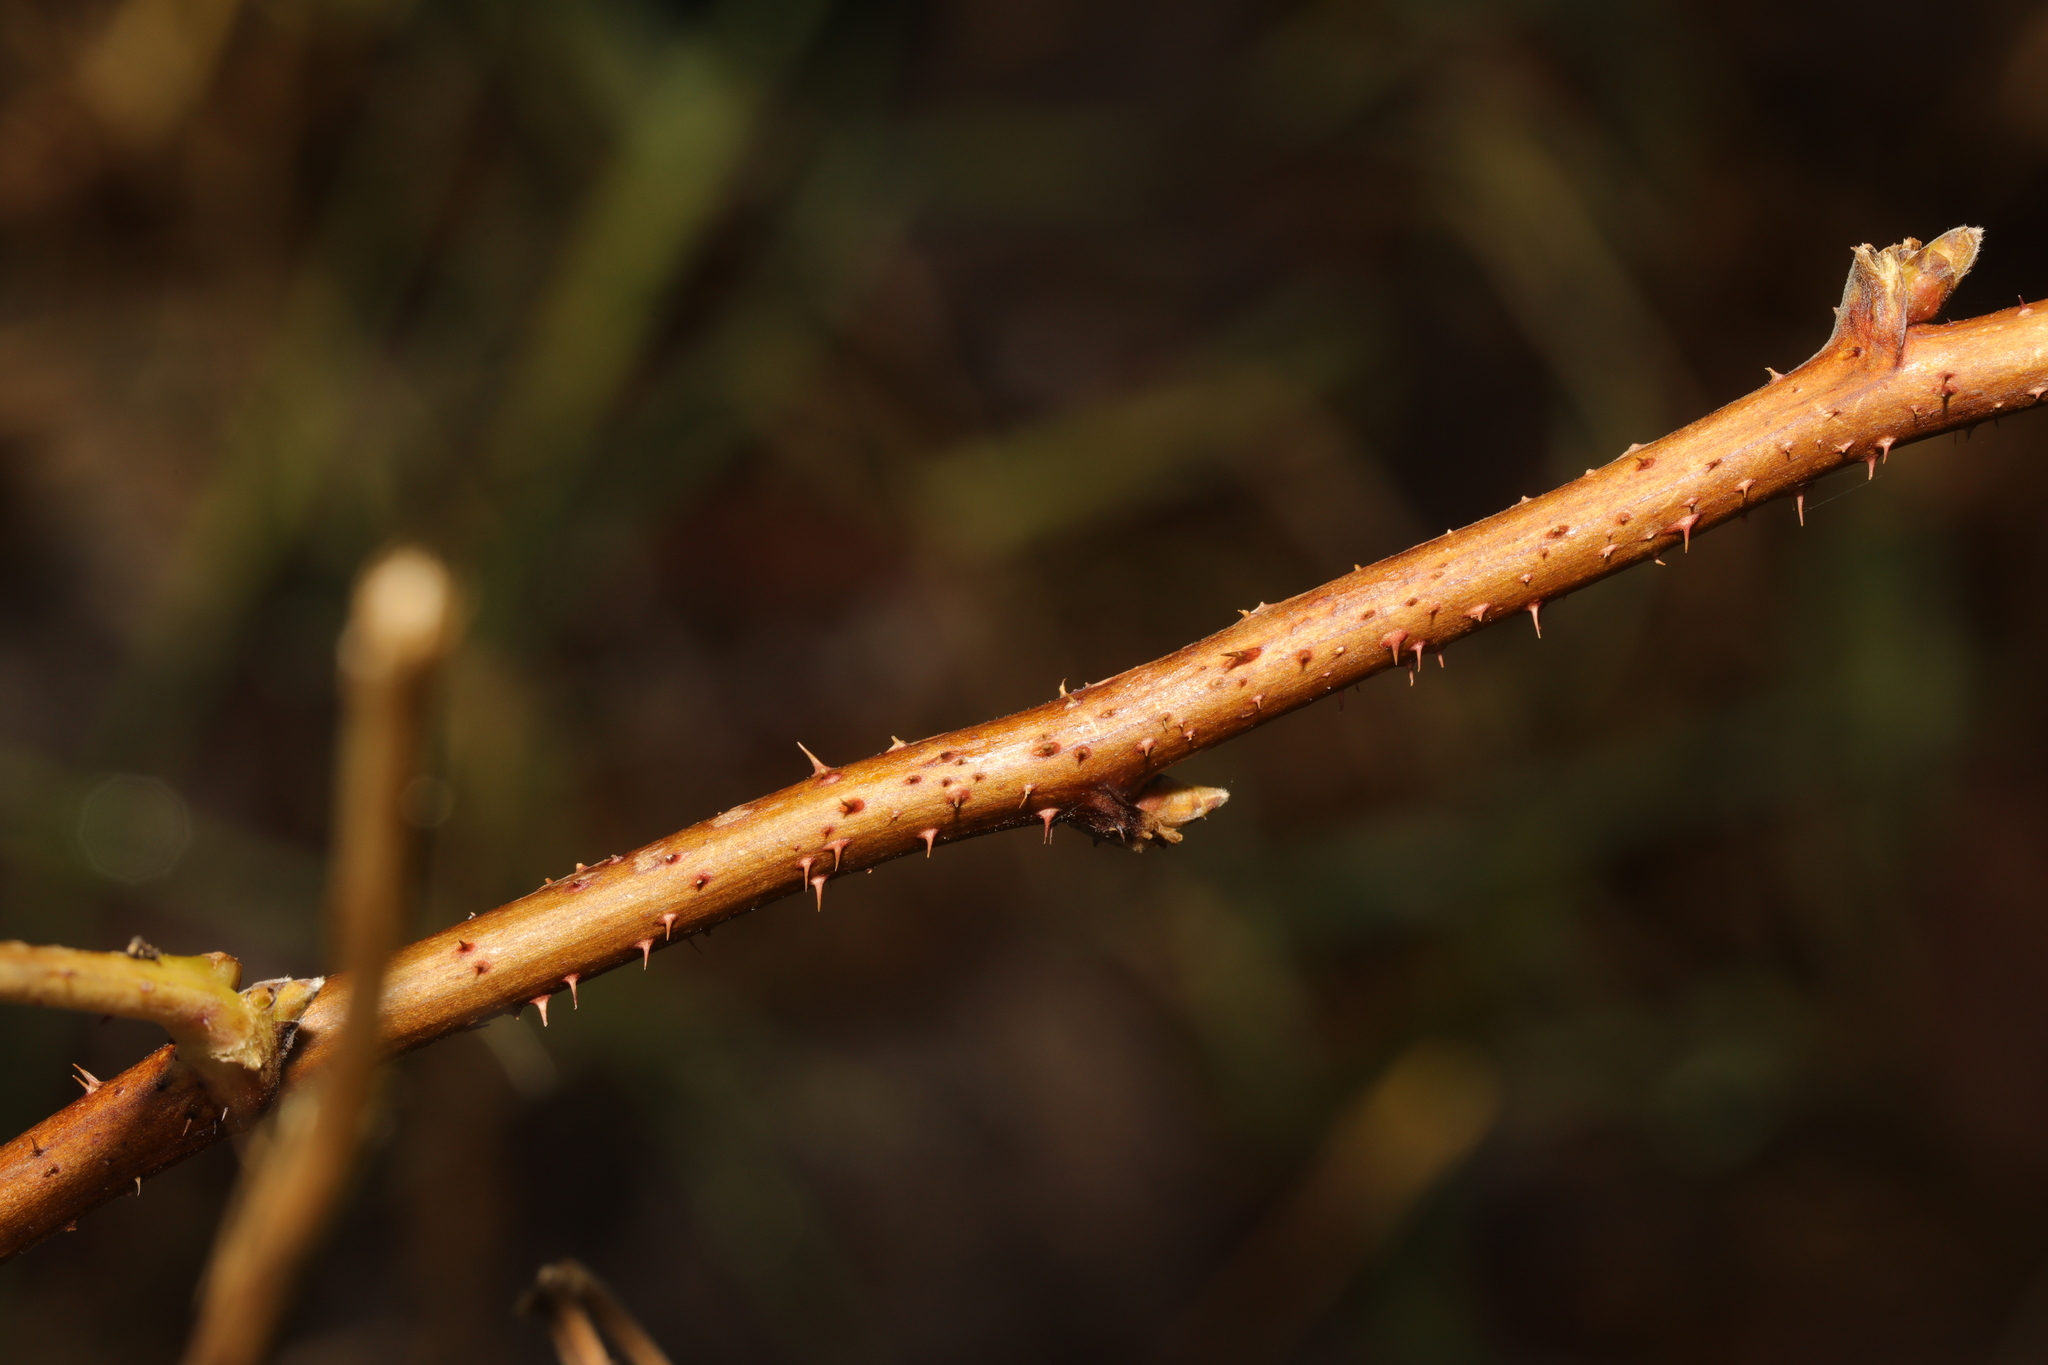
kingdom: Plantae
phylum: Tracheophyta
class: Magnoliopsida
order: Rosales
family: Rosaceae
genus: Rubus
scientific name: Rubus idaeus
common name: Raspberry
